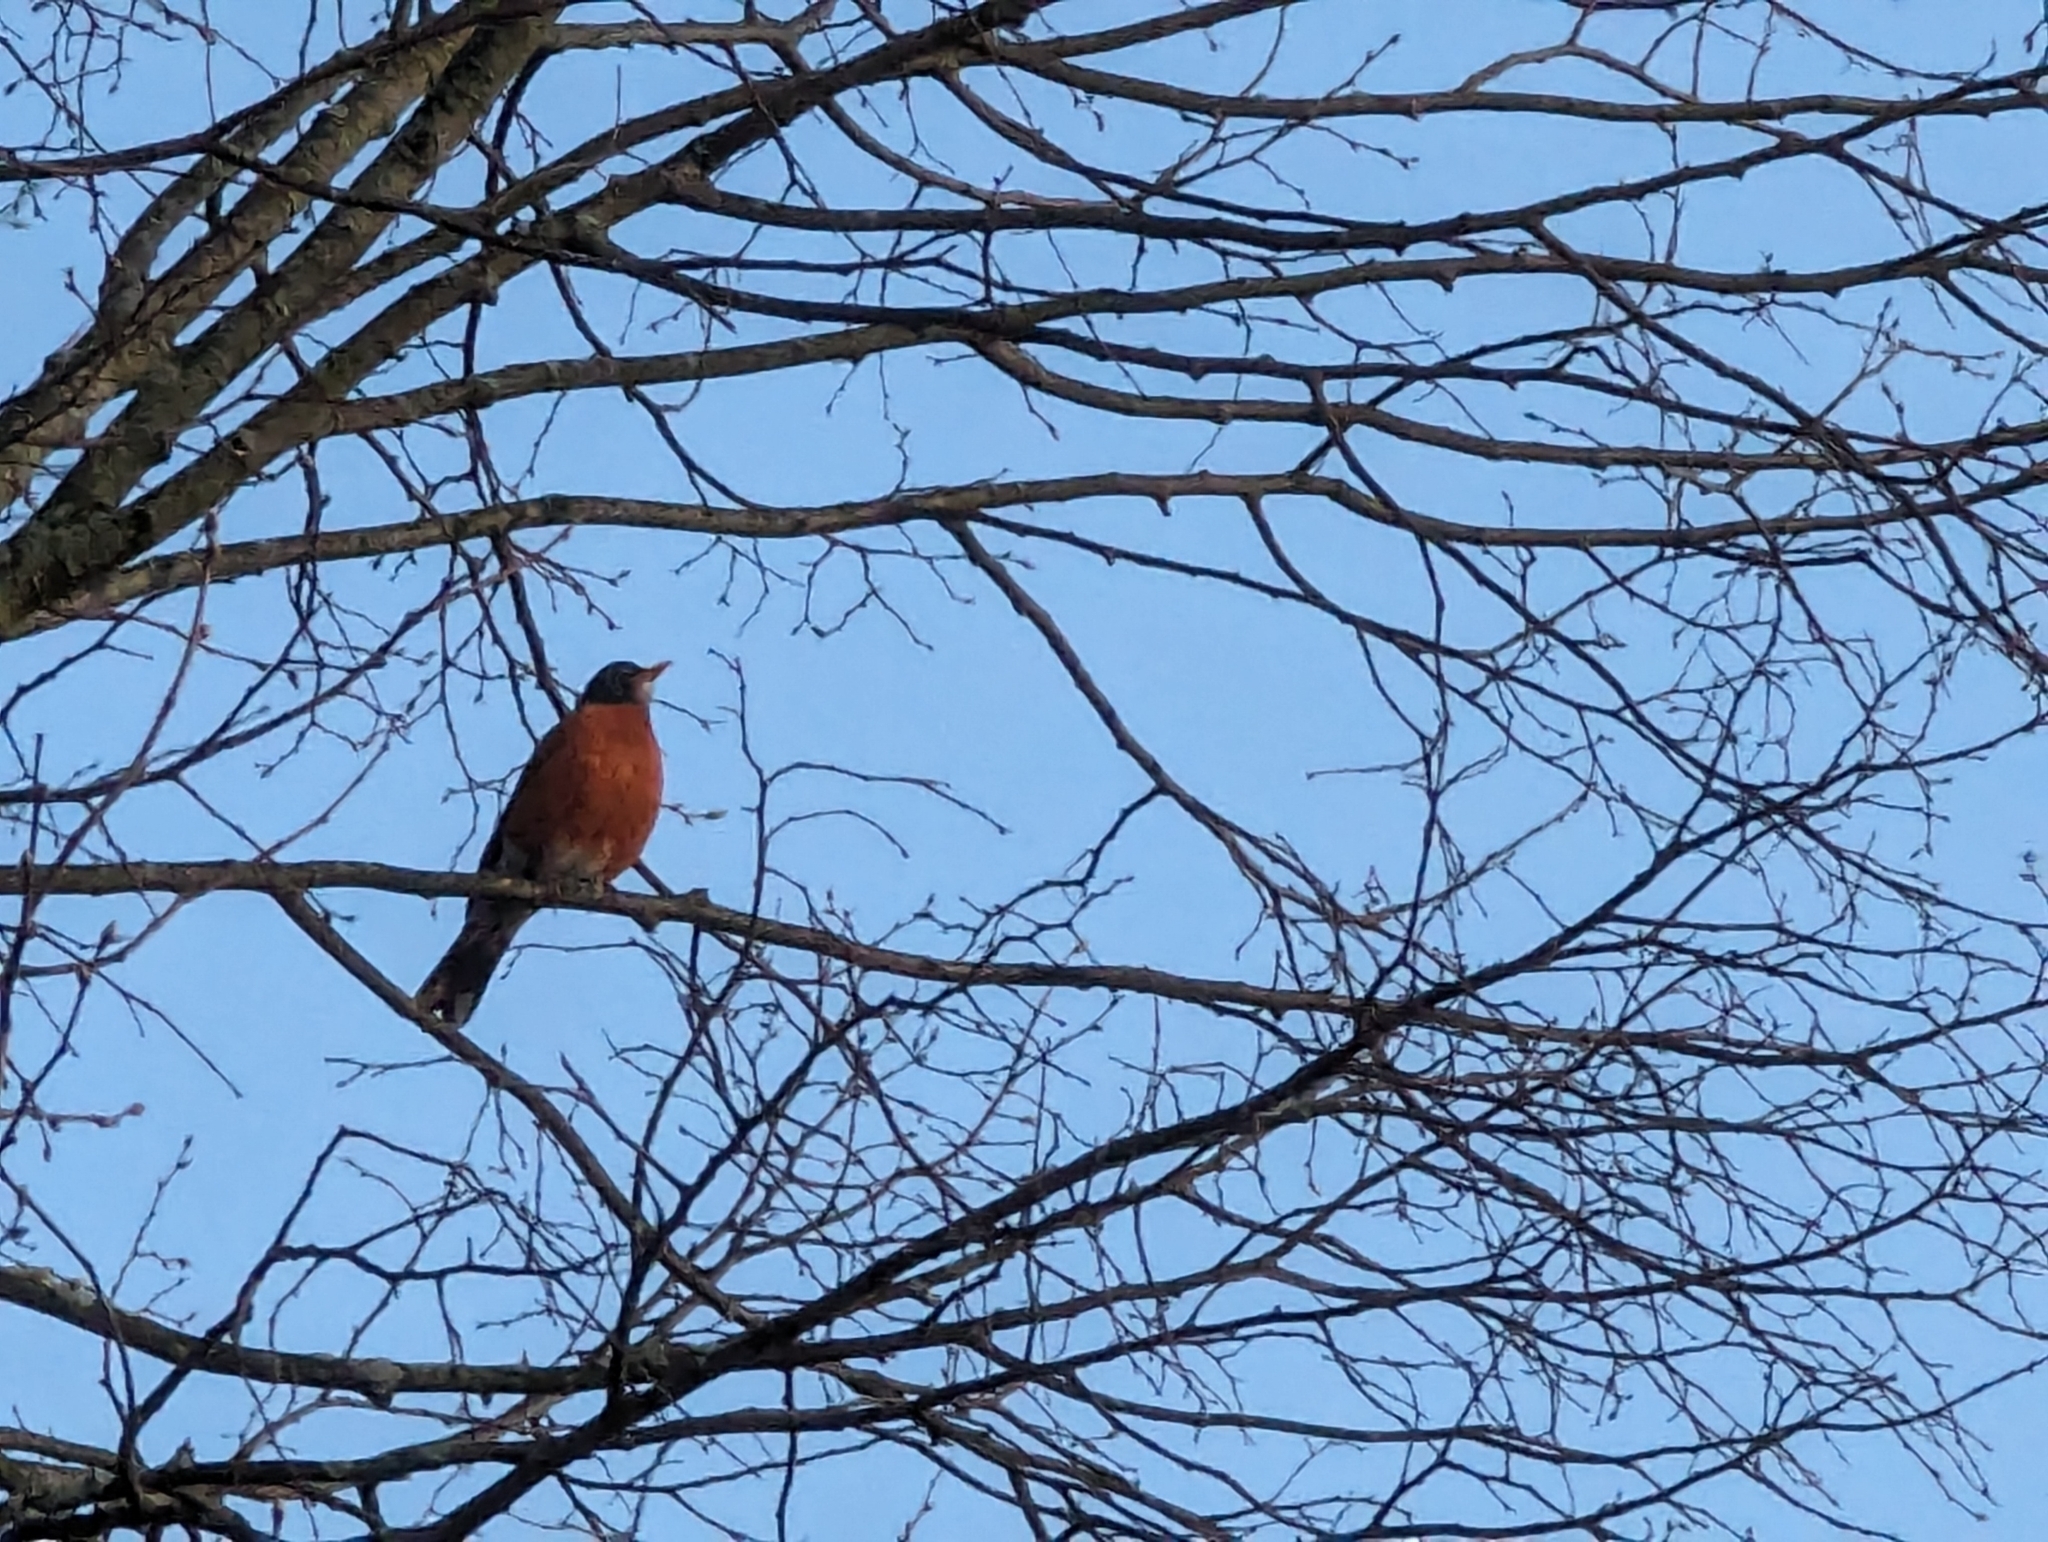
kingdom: Animalia
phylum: Chordata
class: Aves
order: Passeriformes
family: Turdidae
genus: Turdus
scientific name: Turdus migratorius
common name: American robin
